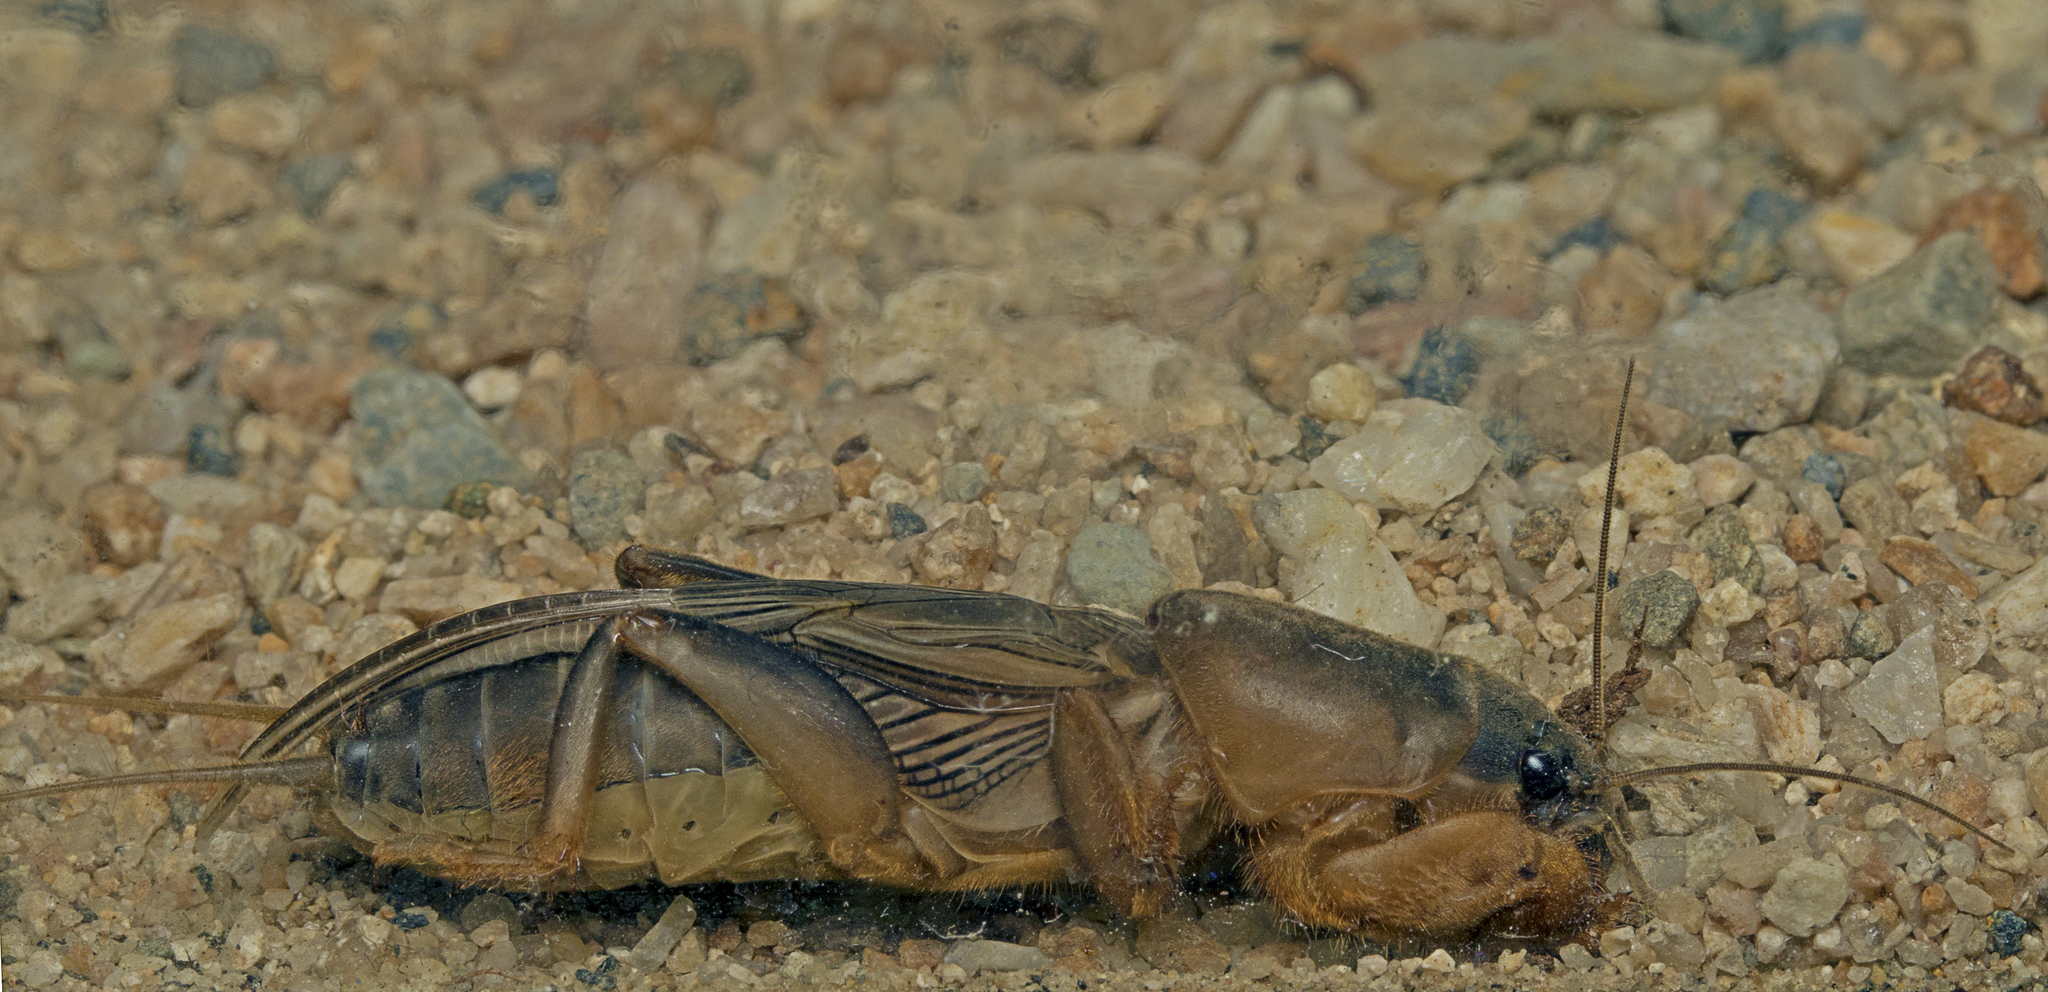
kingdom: Animalia
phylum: Arthropoda
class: Insecta
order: Orthoptera
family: Gryllotalpidae
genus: Gryllotalpa
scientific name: Gryllotalpa monanka
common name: Dark night mole cricket
